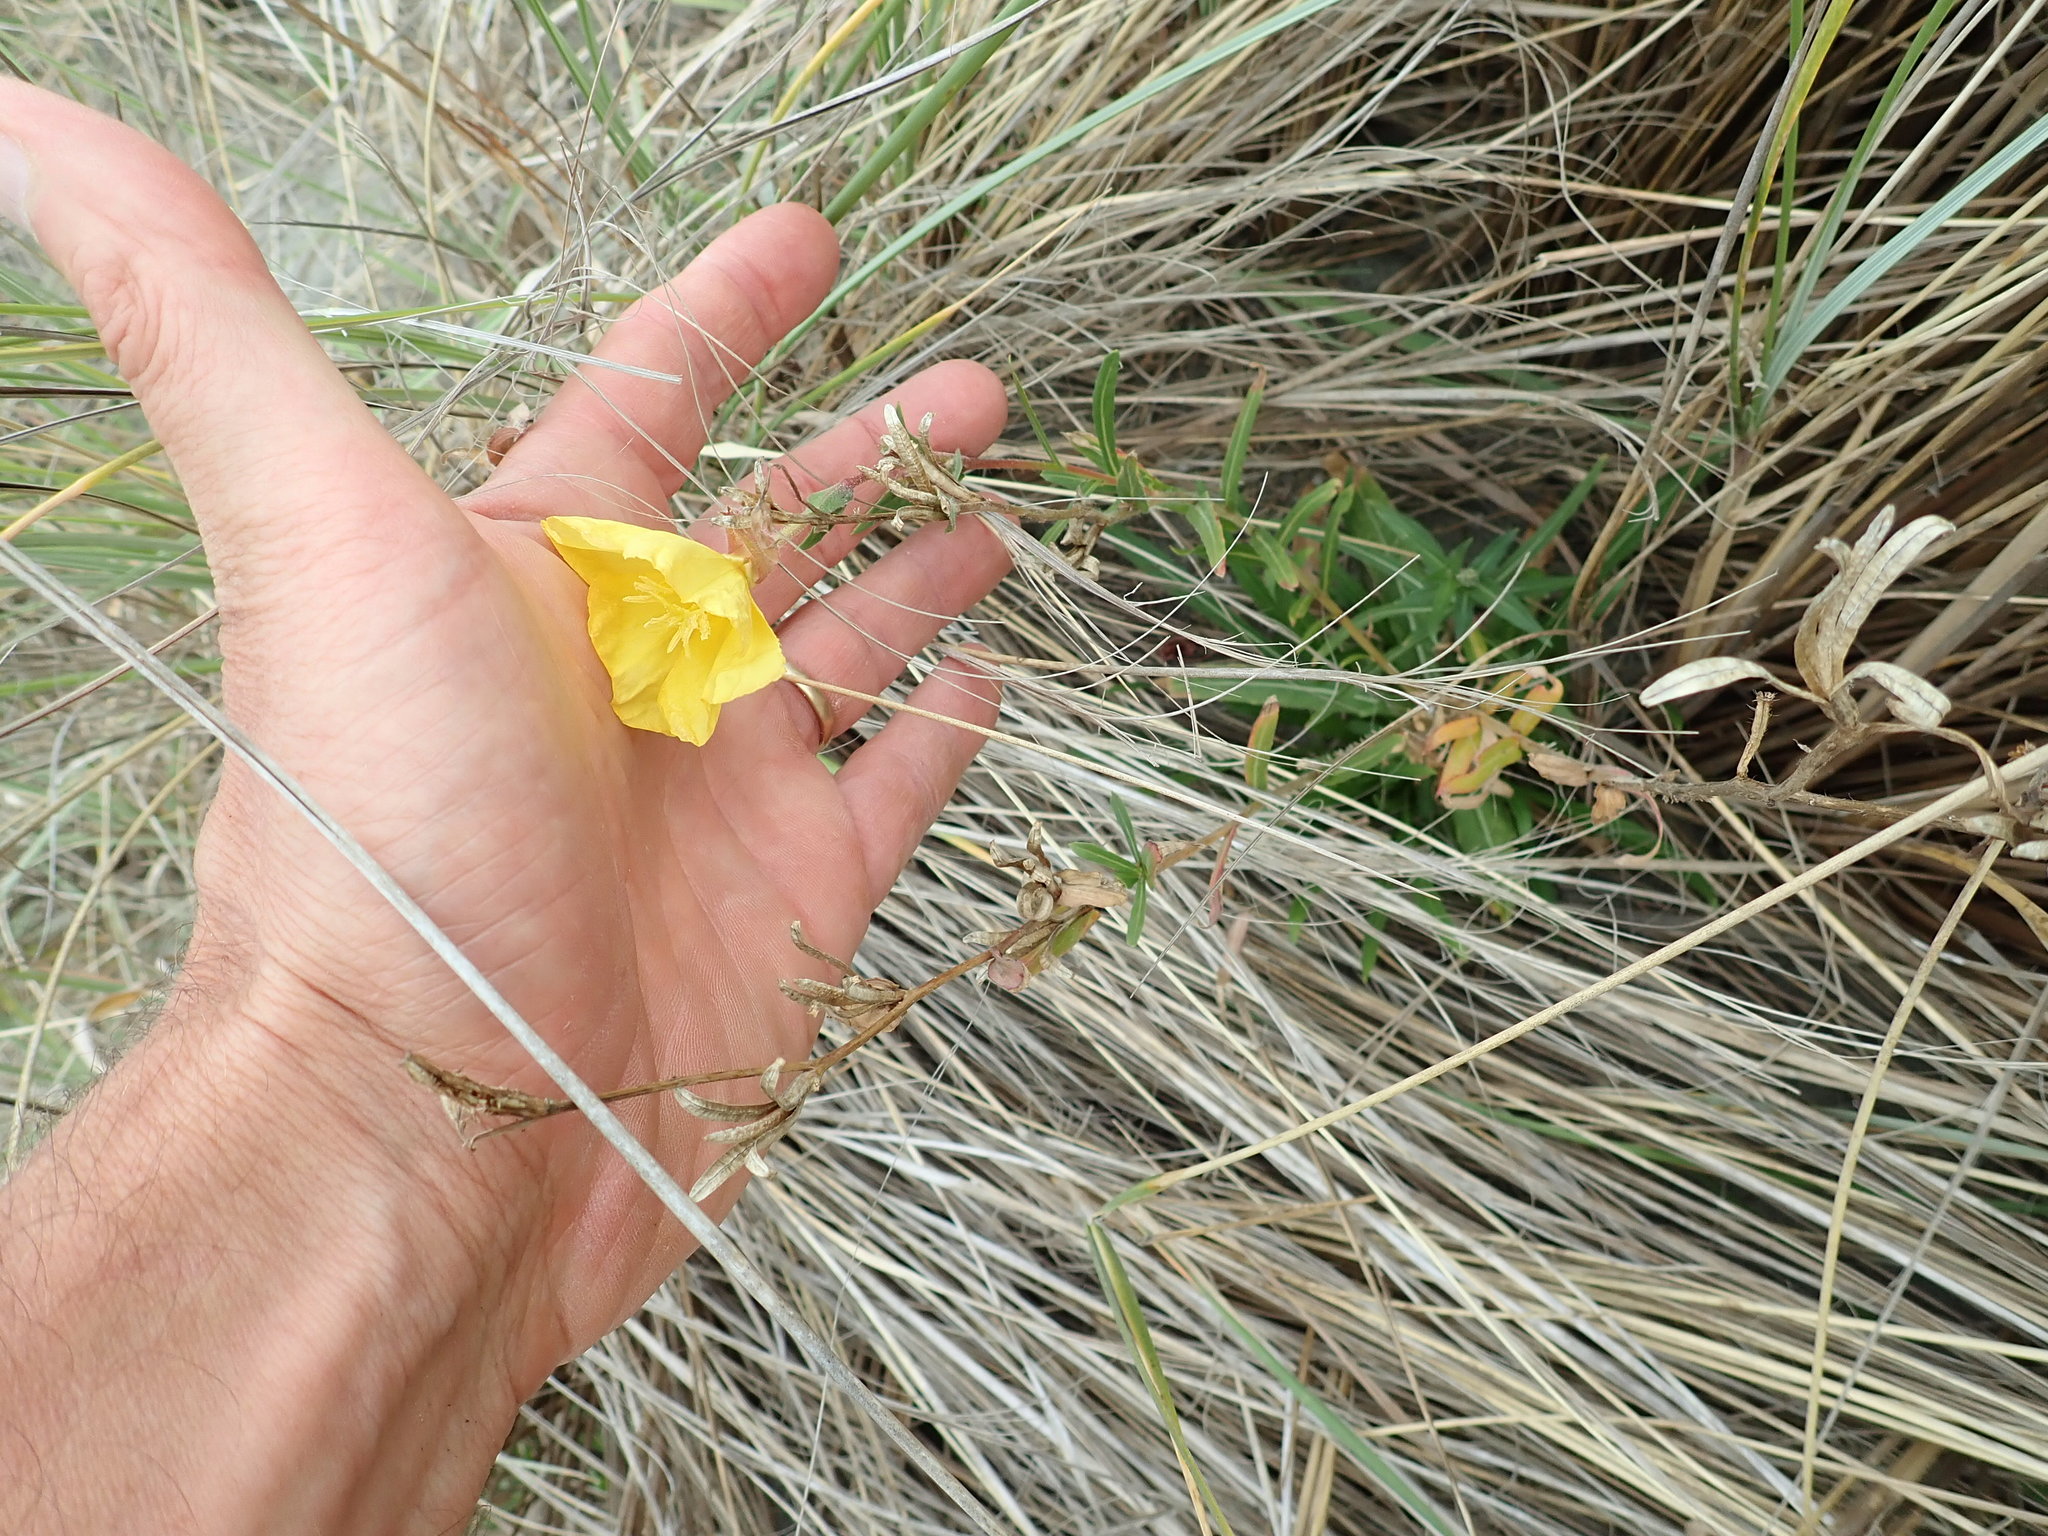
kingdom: Plantae
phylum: Tracheophyta
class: Magnoliopsida
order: Myrtales
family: Onagraceae
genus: Oenothera
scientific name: Oenothera stricta
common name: Fragrant evening-primrose
